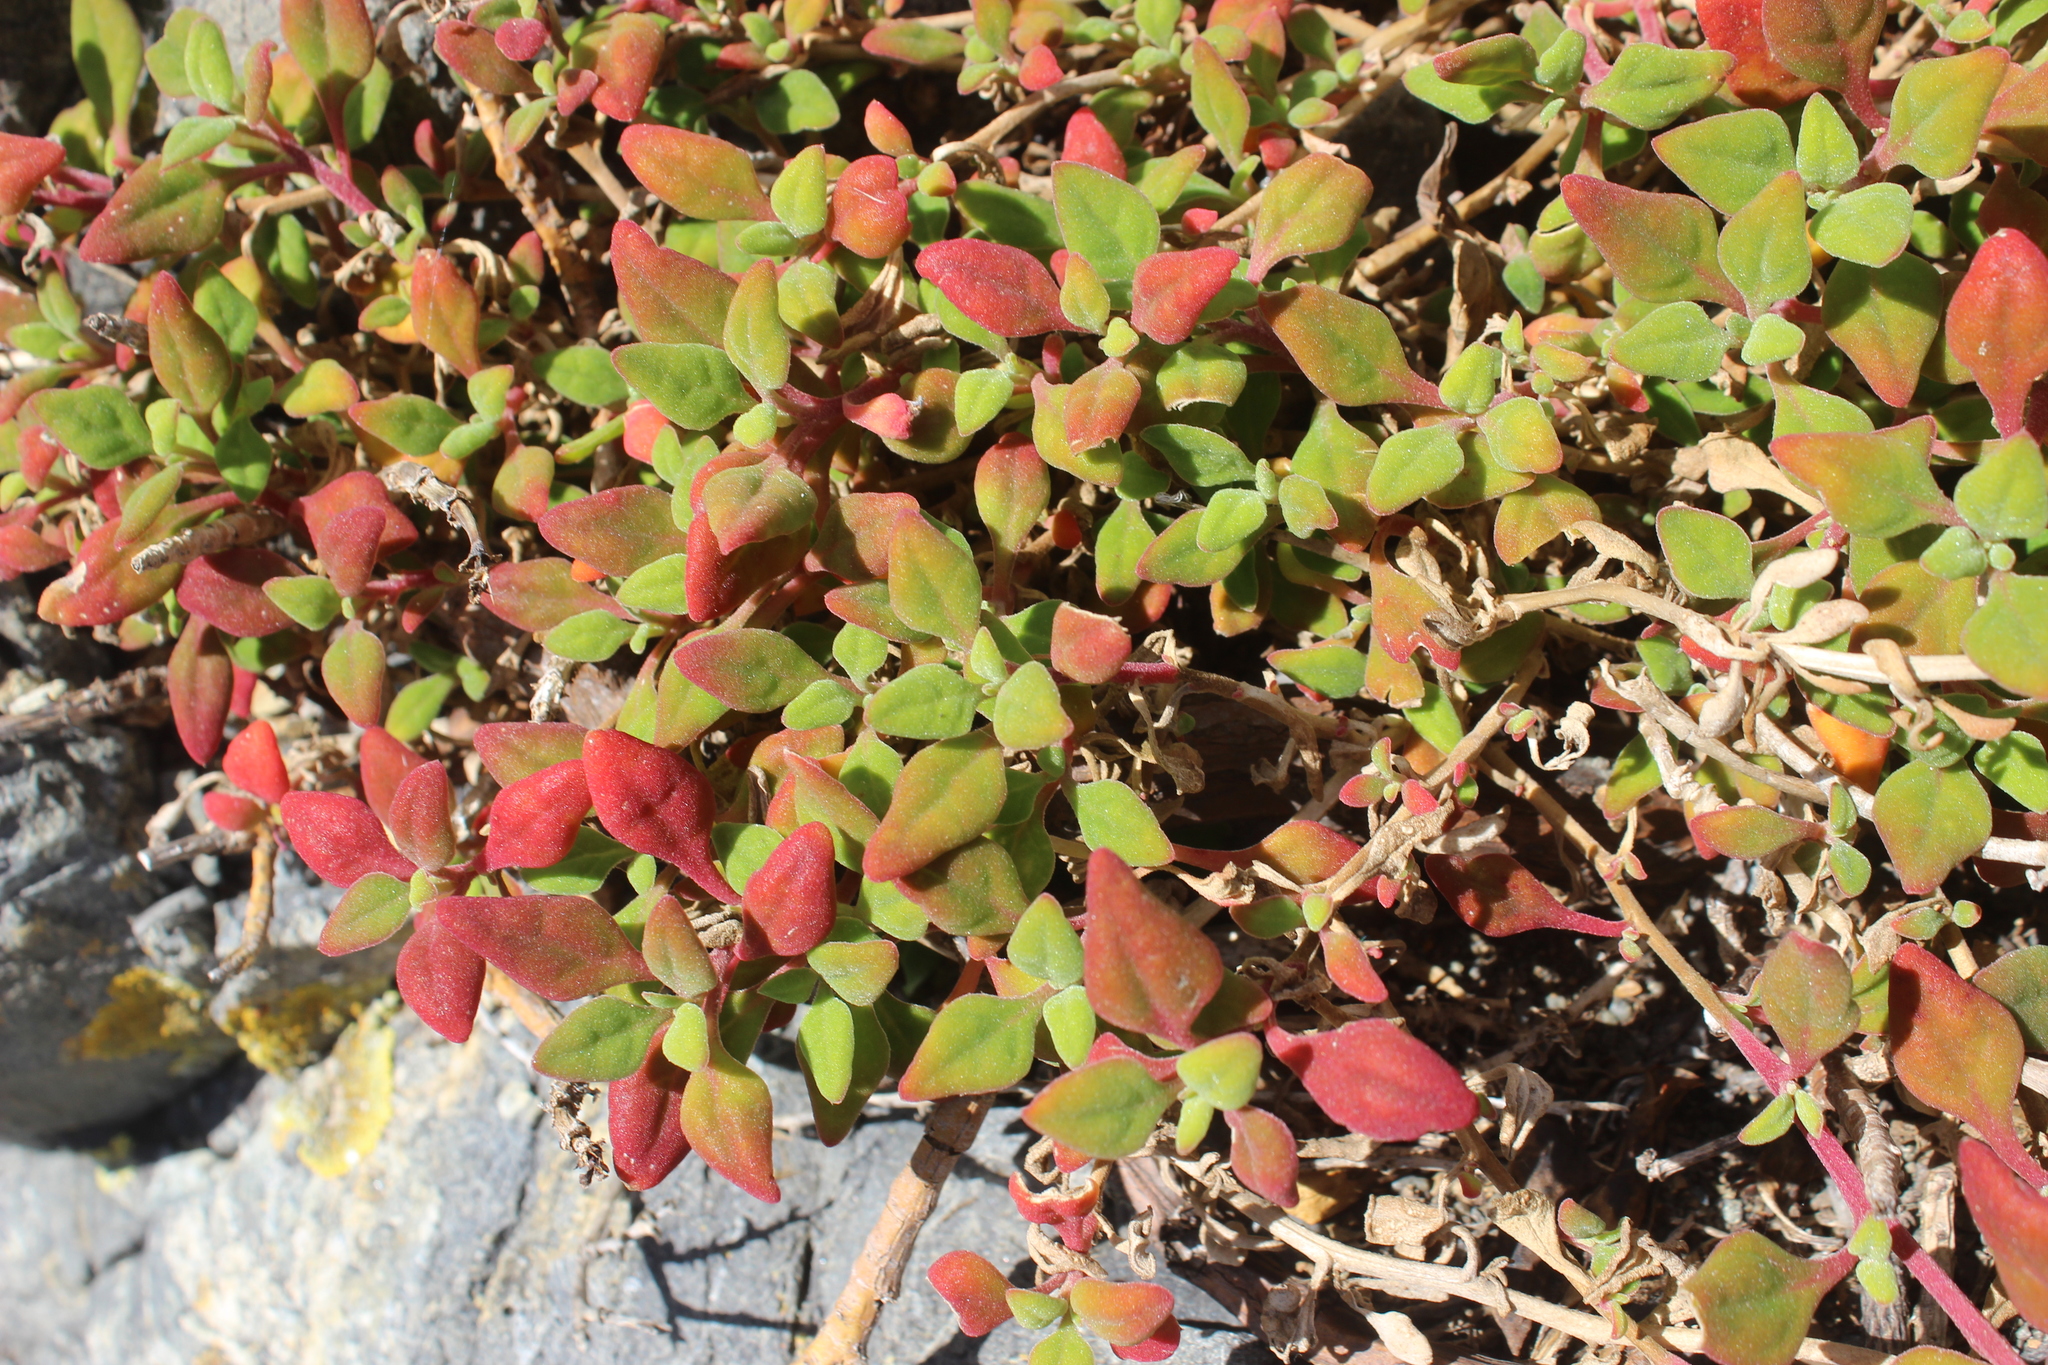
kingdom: Plantae
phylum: Tracheophyta
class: Magnoliopsida
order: Caryophyllales
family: Aizoaceae
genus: Tetragonia
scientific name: Tetragonia implexicoma
